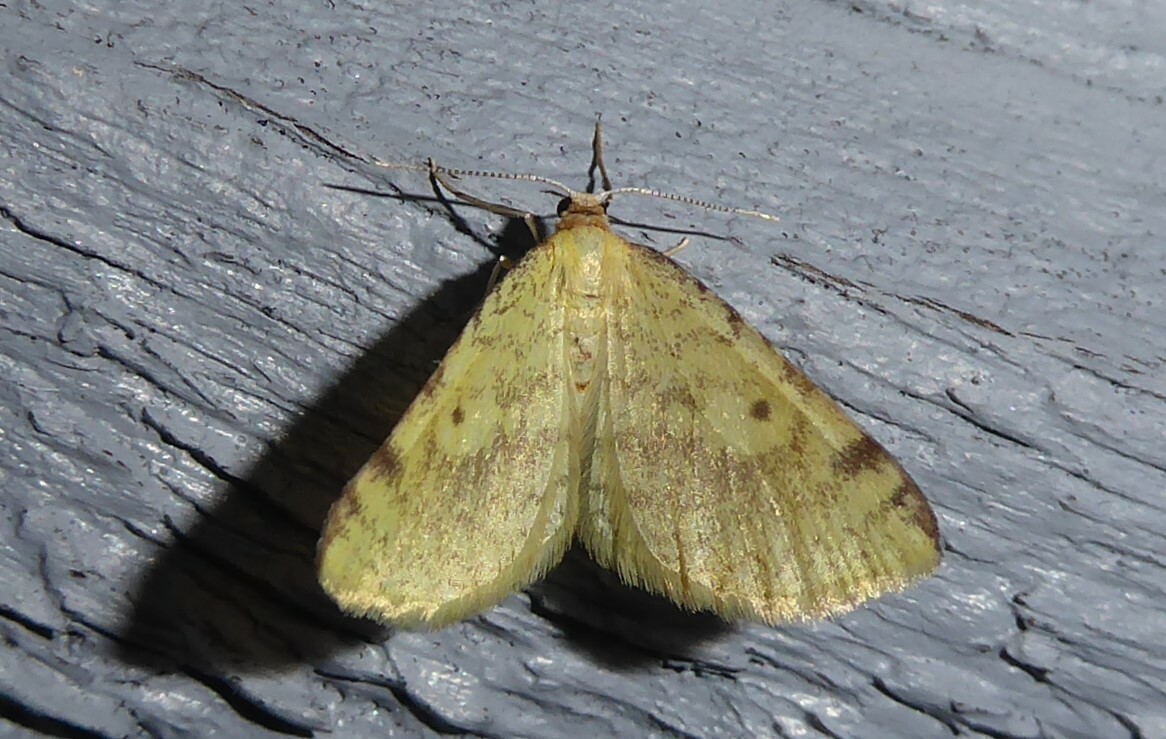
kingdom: Animalia
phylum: Arthropoda
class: Insecta
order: Lepidoptera
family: Geometridae
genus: Epiphryne
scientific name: Epiphryne undosata
